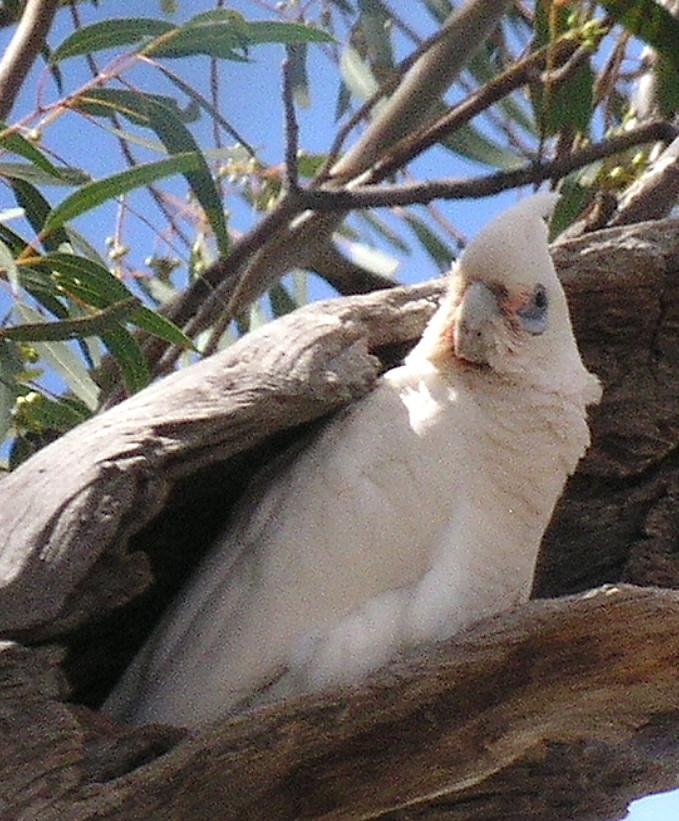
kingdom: Animalia
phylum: Chordata
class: Aves
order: Psittaciformes
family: Psittacidae
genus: Cacatua
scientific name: Cacatua sanguinea
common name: Little corella
